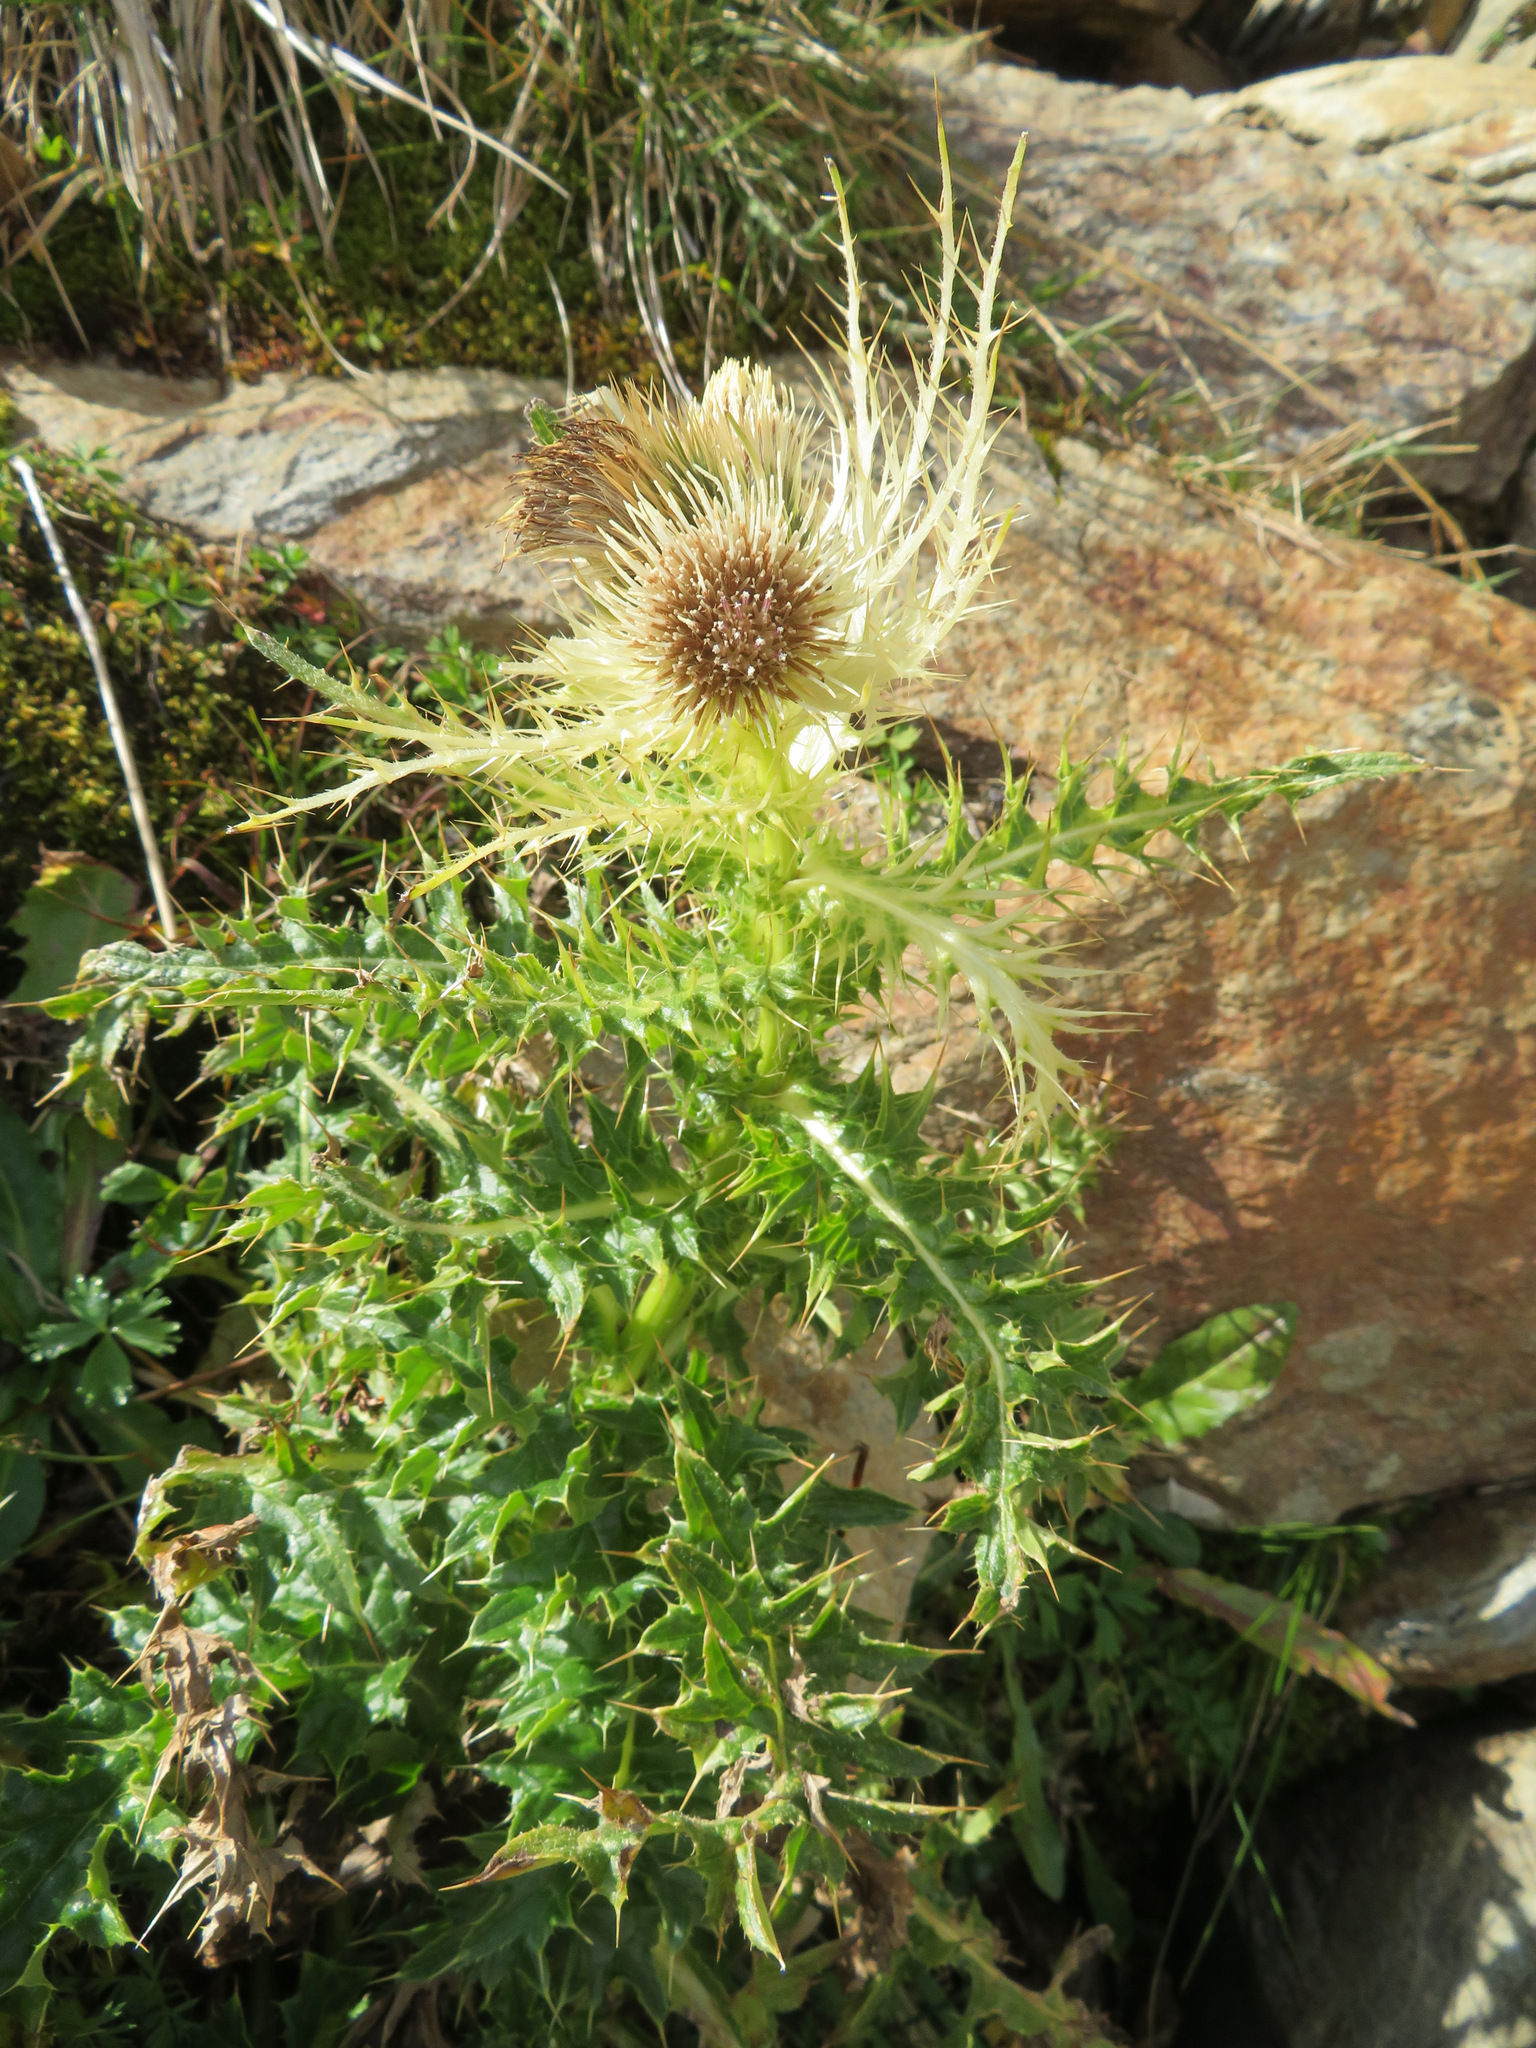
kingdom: Plantae
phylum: Tracheophyta
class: Magnoliopsida
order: Asterales
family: Asteraceae
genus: Cirsium
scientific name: Cirsium spinosissimum
